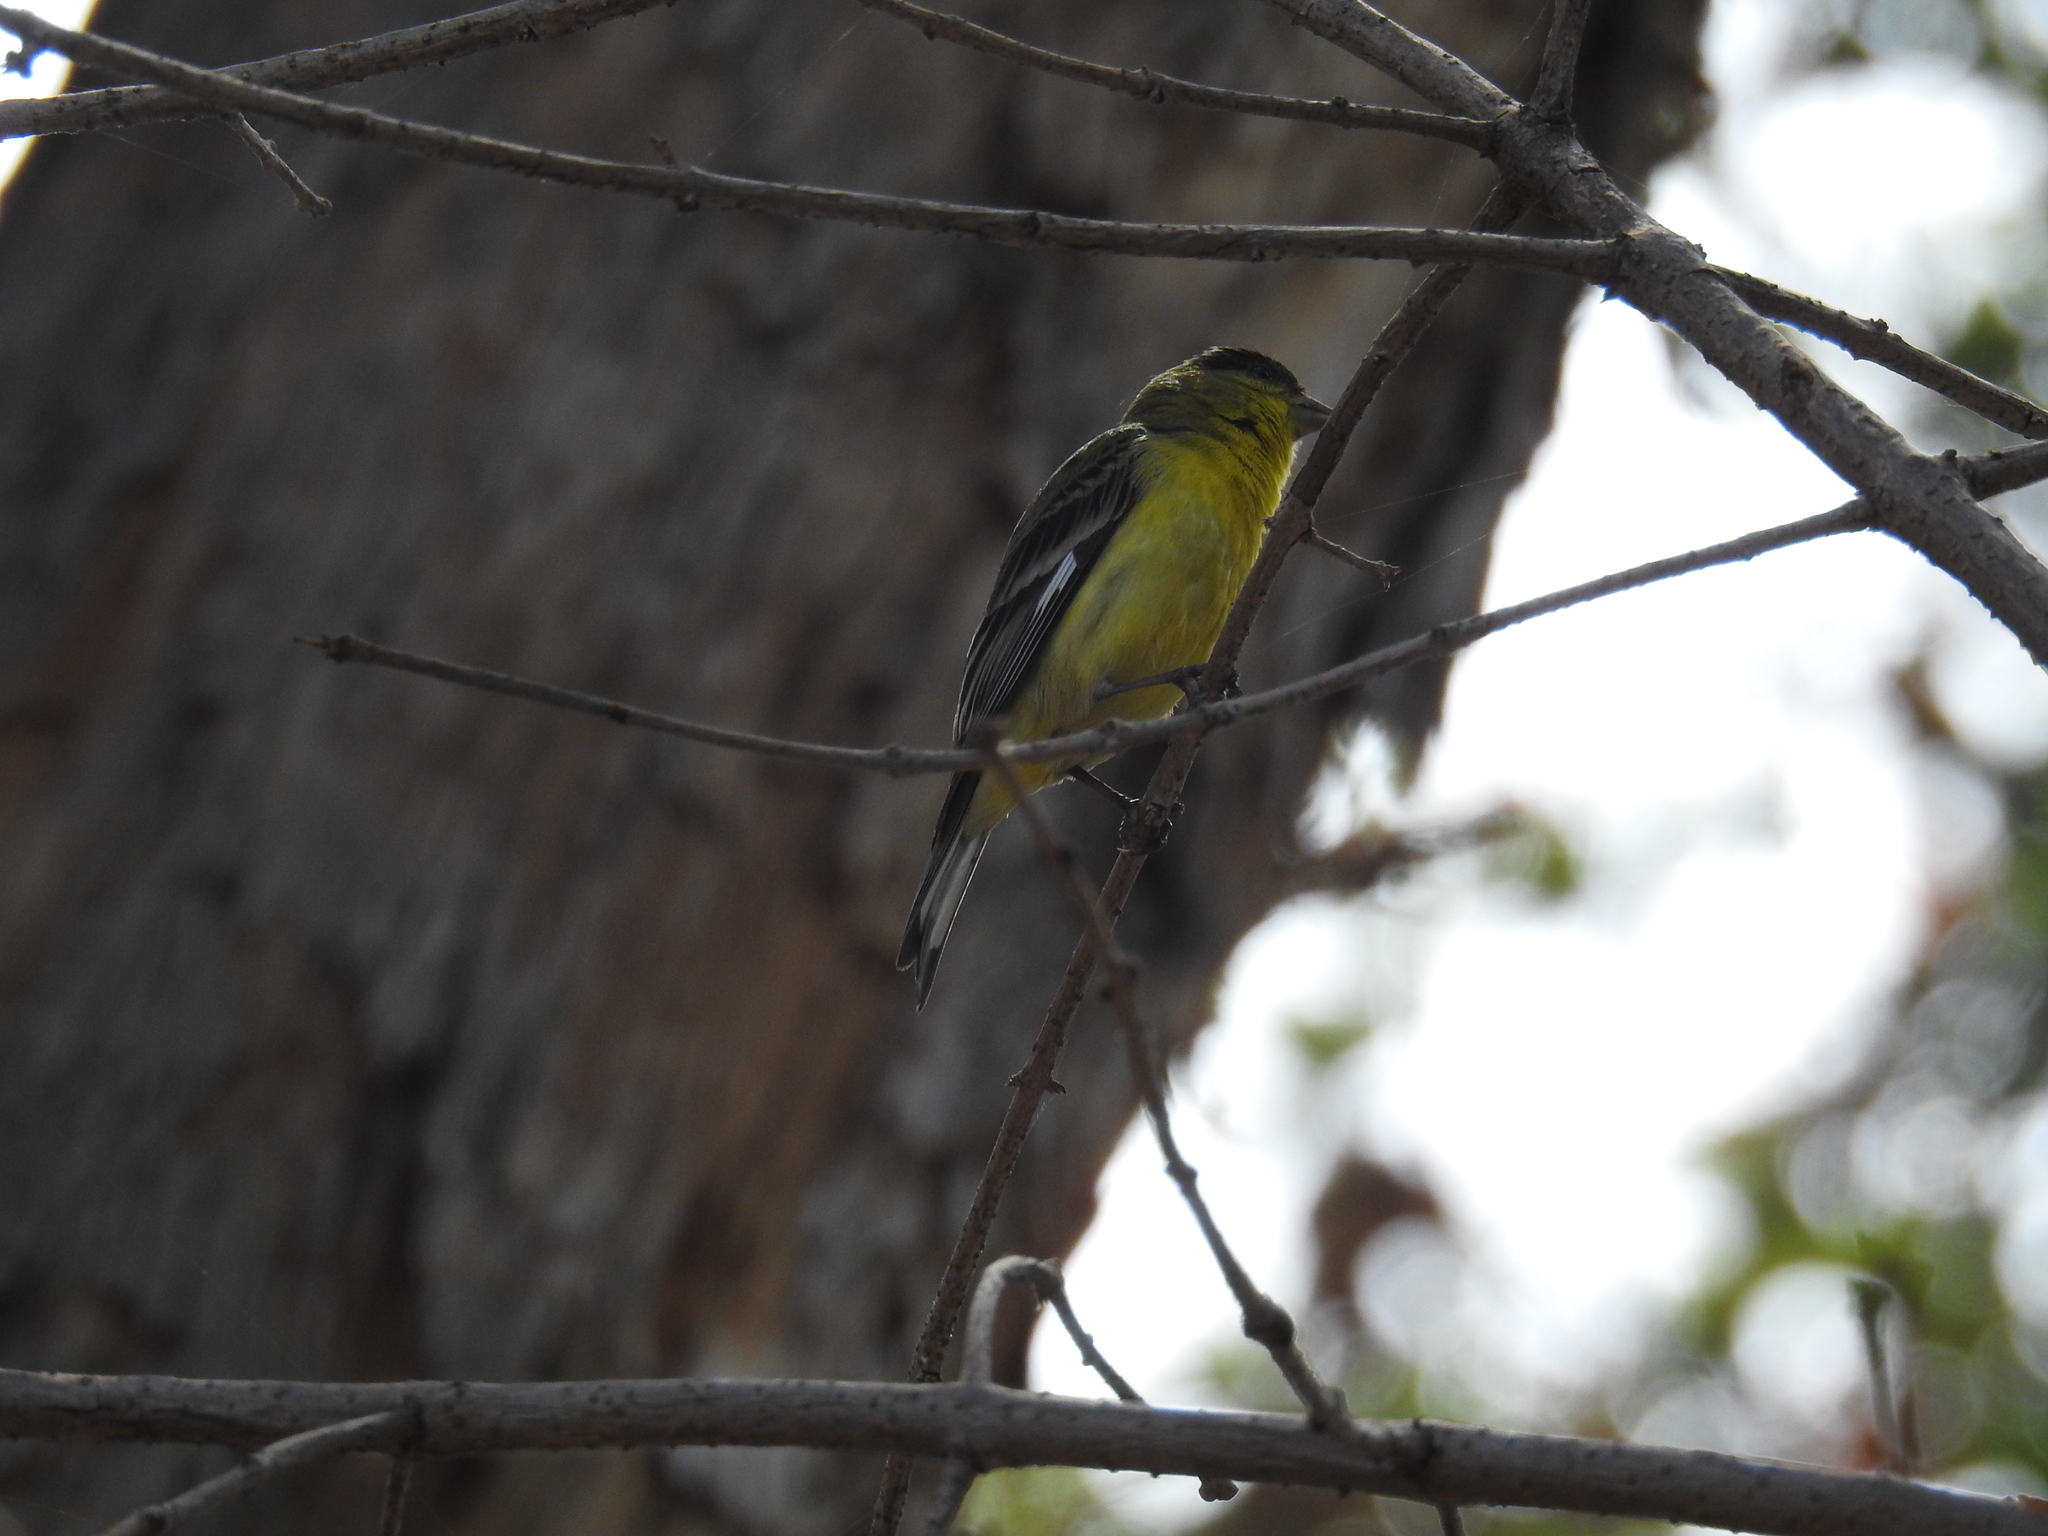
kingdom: Animalia
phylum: Chordata
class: Aves
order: Passeriformes
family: Fringillidae
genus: Spinus
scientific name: Spinus psaltria
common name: Lesser goldfinch
